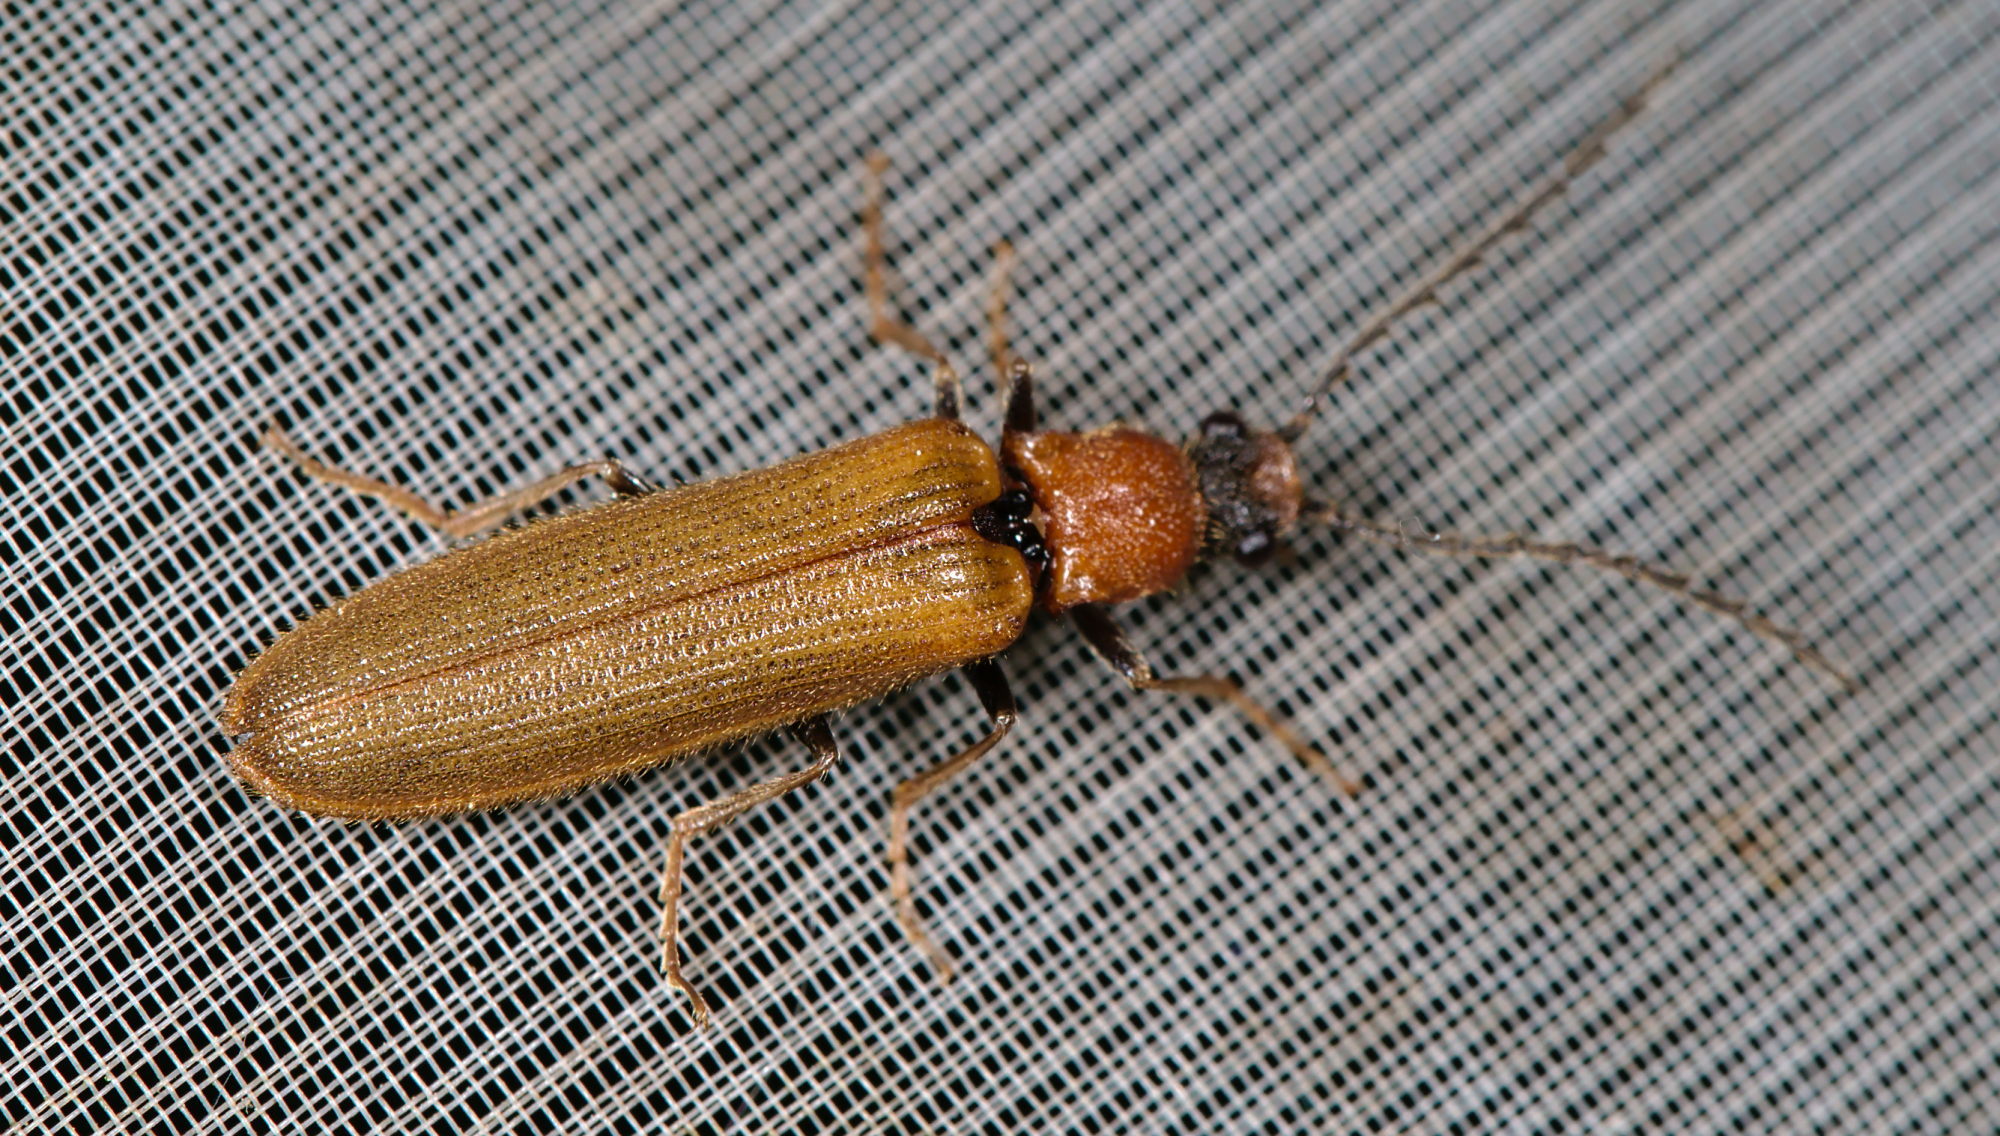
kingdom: Animalia
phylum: Arthropoda
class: Insecta
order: Coleoptera
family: Elateridae
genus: Denticollis
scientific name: Denticollis linearis
